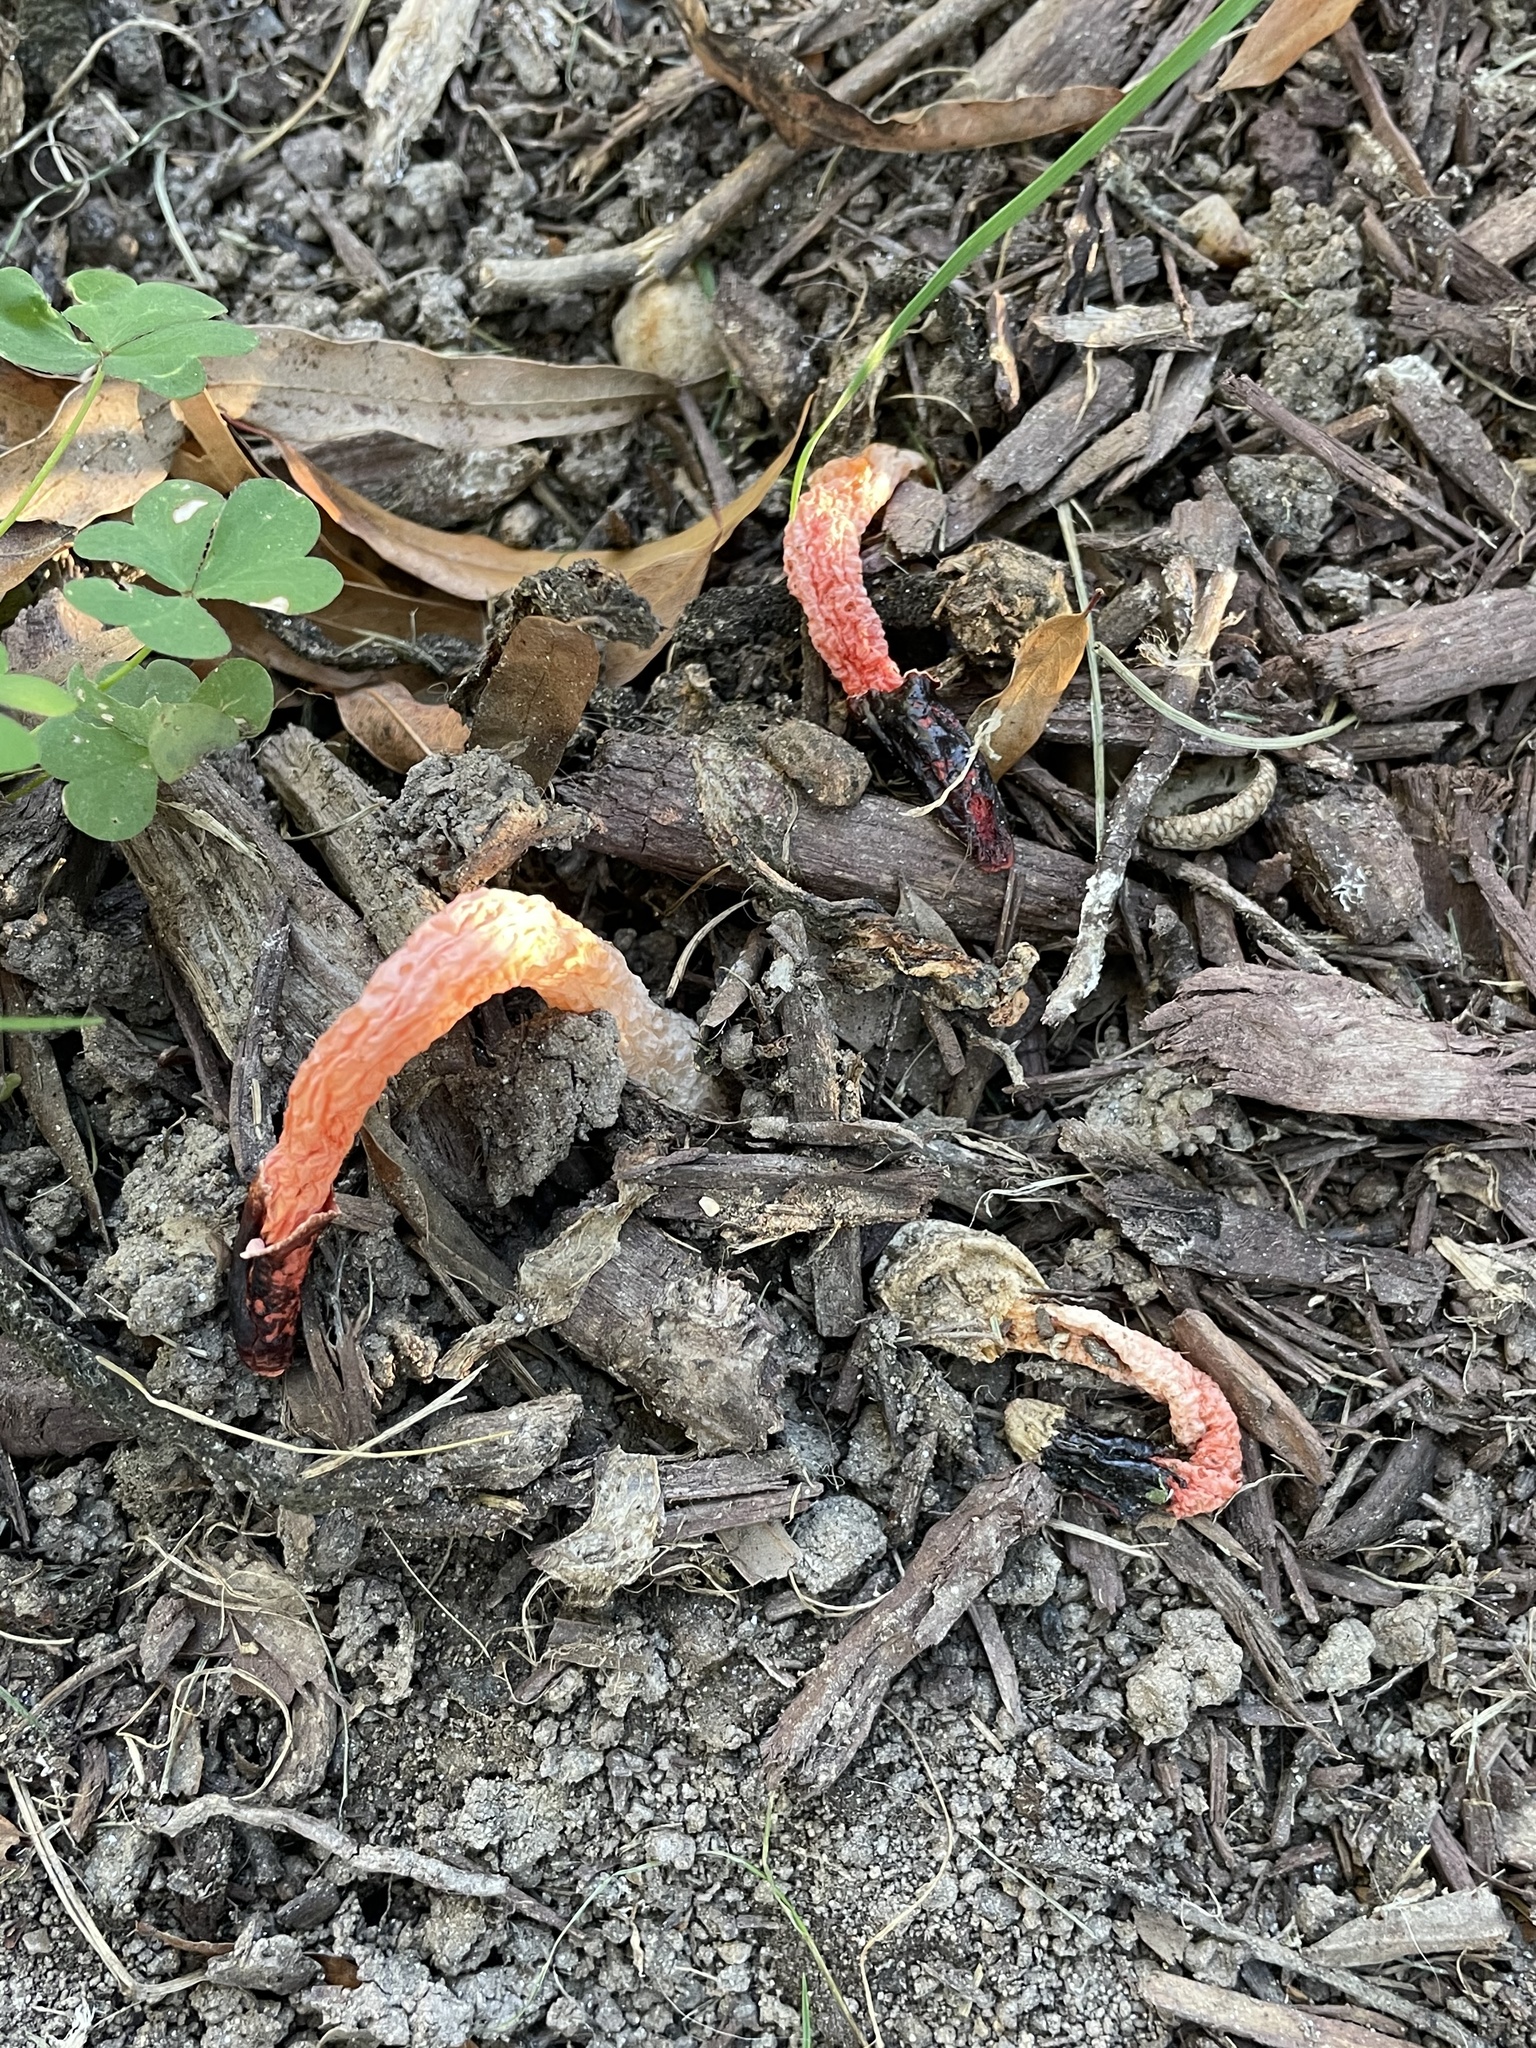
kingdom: Fungi
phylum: Basidiomycota
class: Agaricomycetes
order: Phallales
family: Phallaceae
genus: Phallus
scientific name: Phallus rugulosus
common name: Wrinkly stinkhorn
